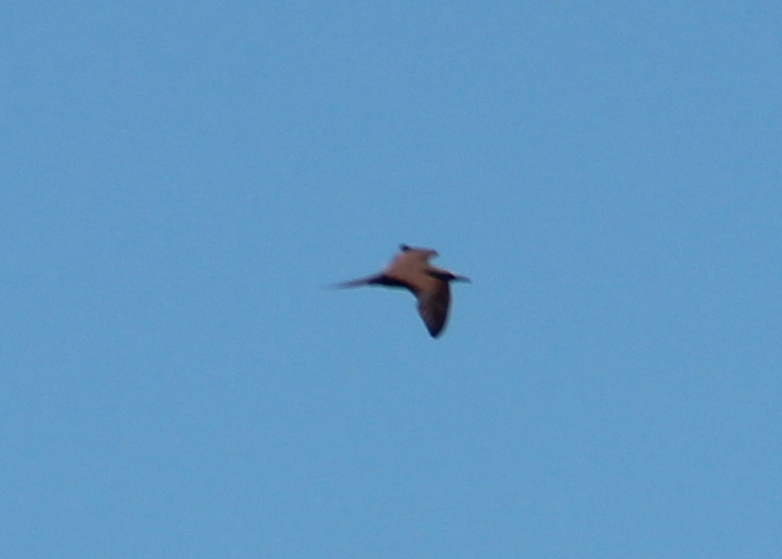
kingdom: Animalia
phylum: Chordata
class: Aves
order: Charadriiformes
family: Laridae
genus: Anous
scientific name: Anous stolidus
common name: Brown noddy
